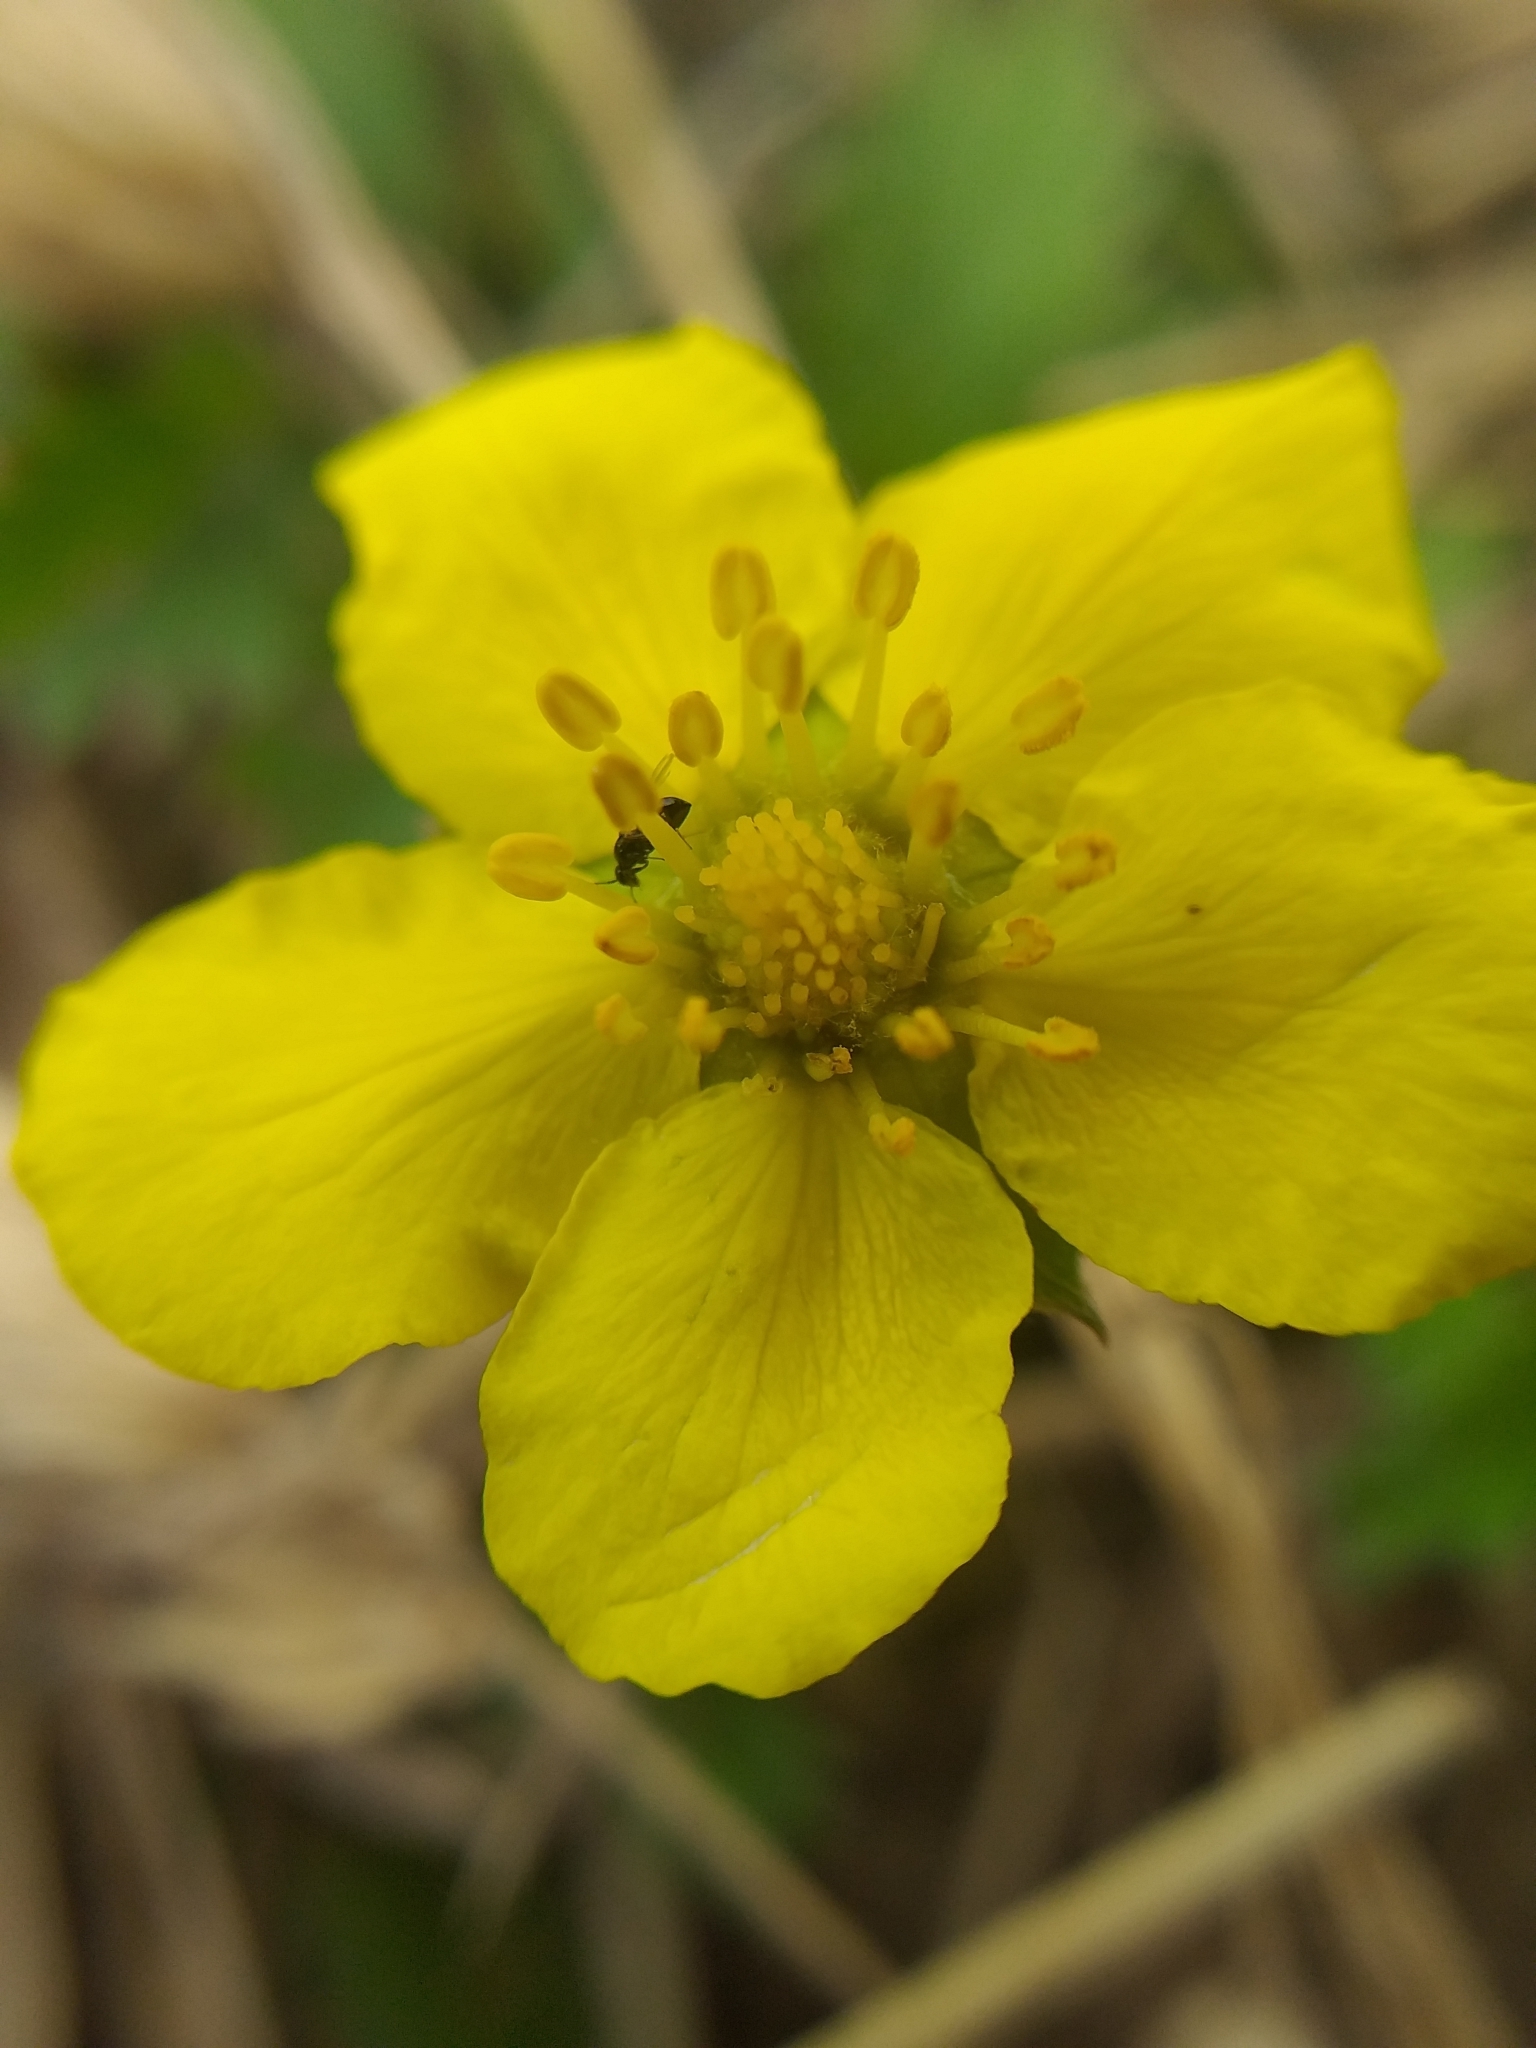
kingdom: Plantae
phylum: Tracheophyta
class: Magnoliopsida
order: Rosales
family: Rosaceae
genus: Argentina
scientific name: Argentina anserina
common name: Common silverweed
